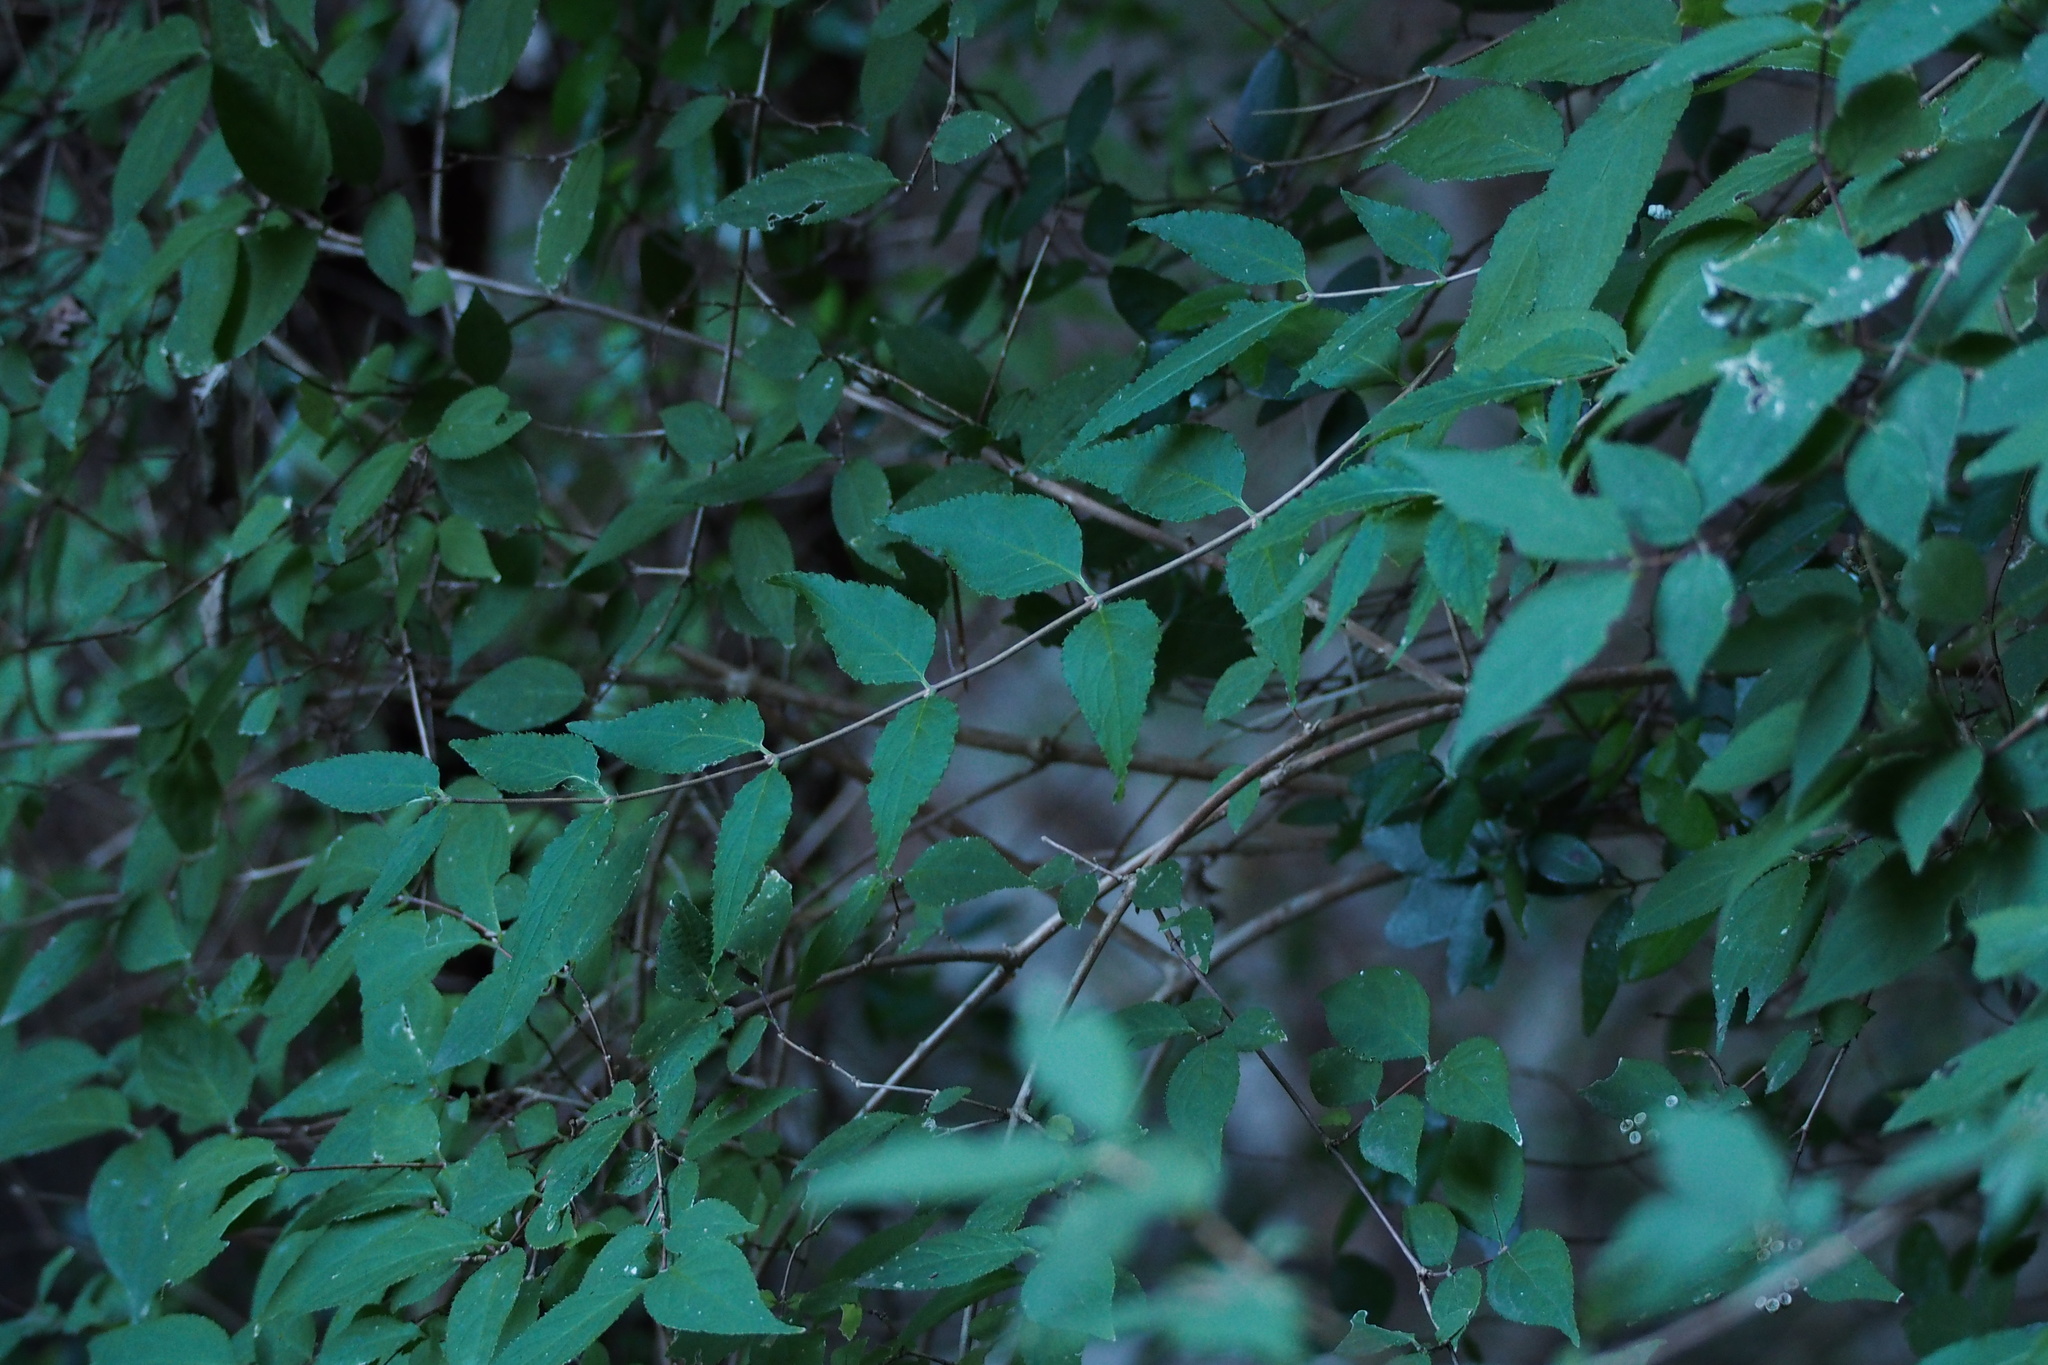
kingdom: Plantae
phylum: Tracheophyta
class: Magnoliopsida
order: Cornales
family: Hydrangeaceae
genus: Deutzia
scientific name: Deutzia gracilis
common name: Slender pride of rochester
